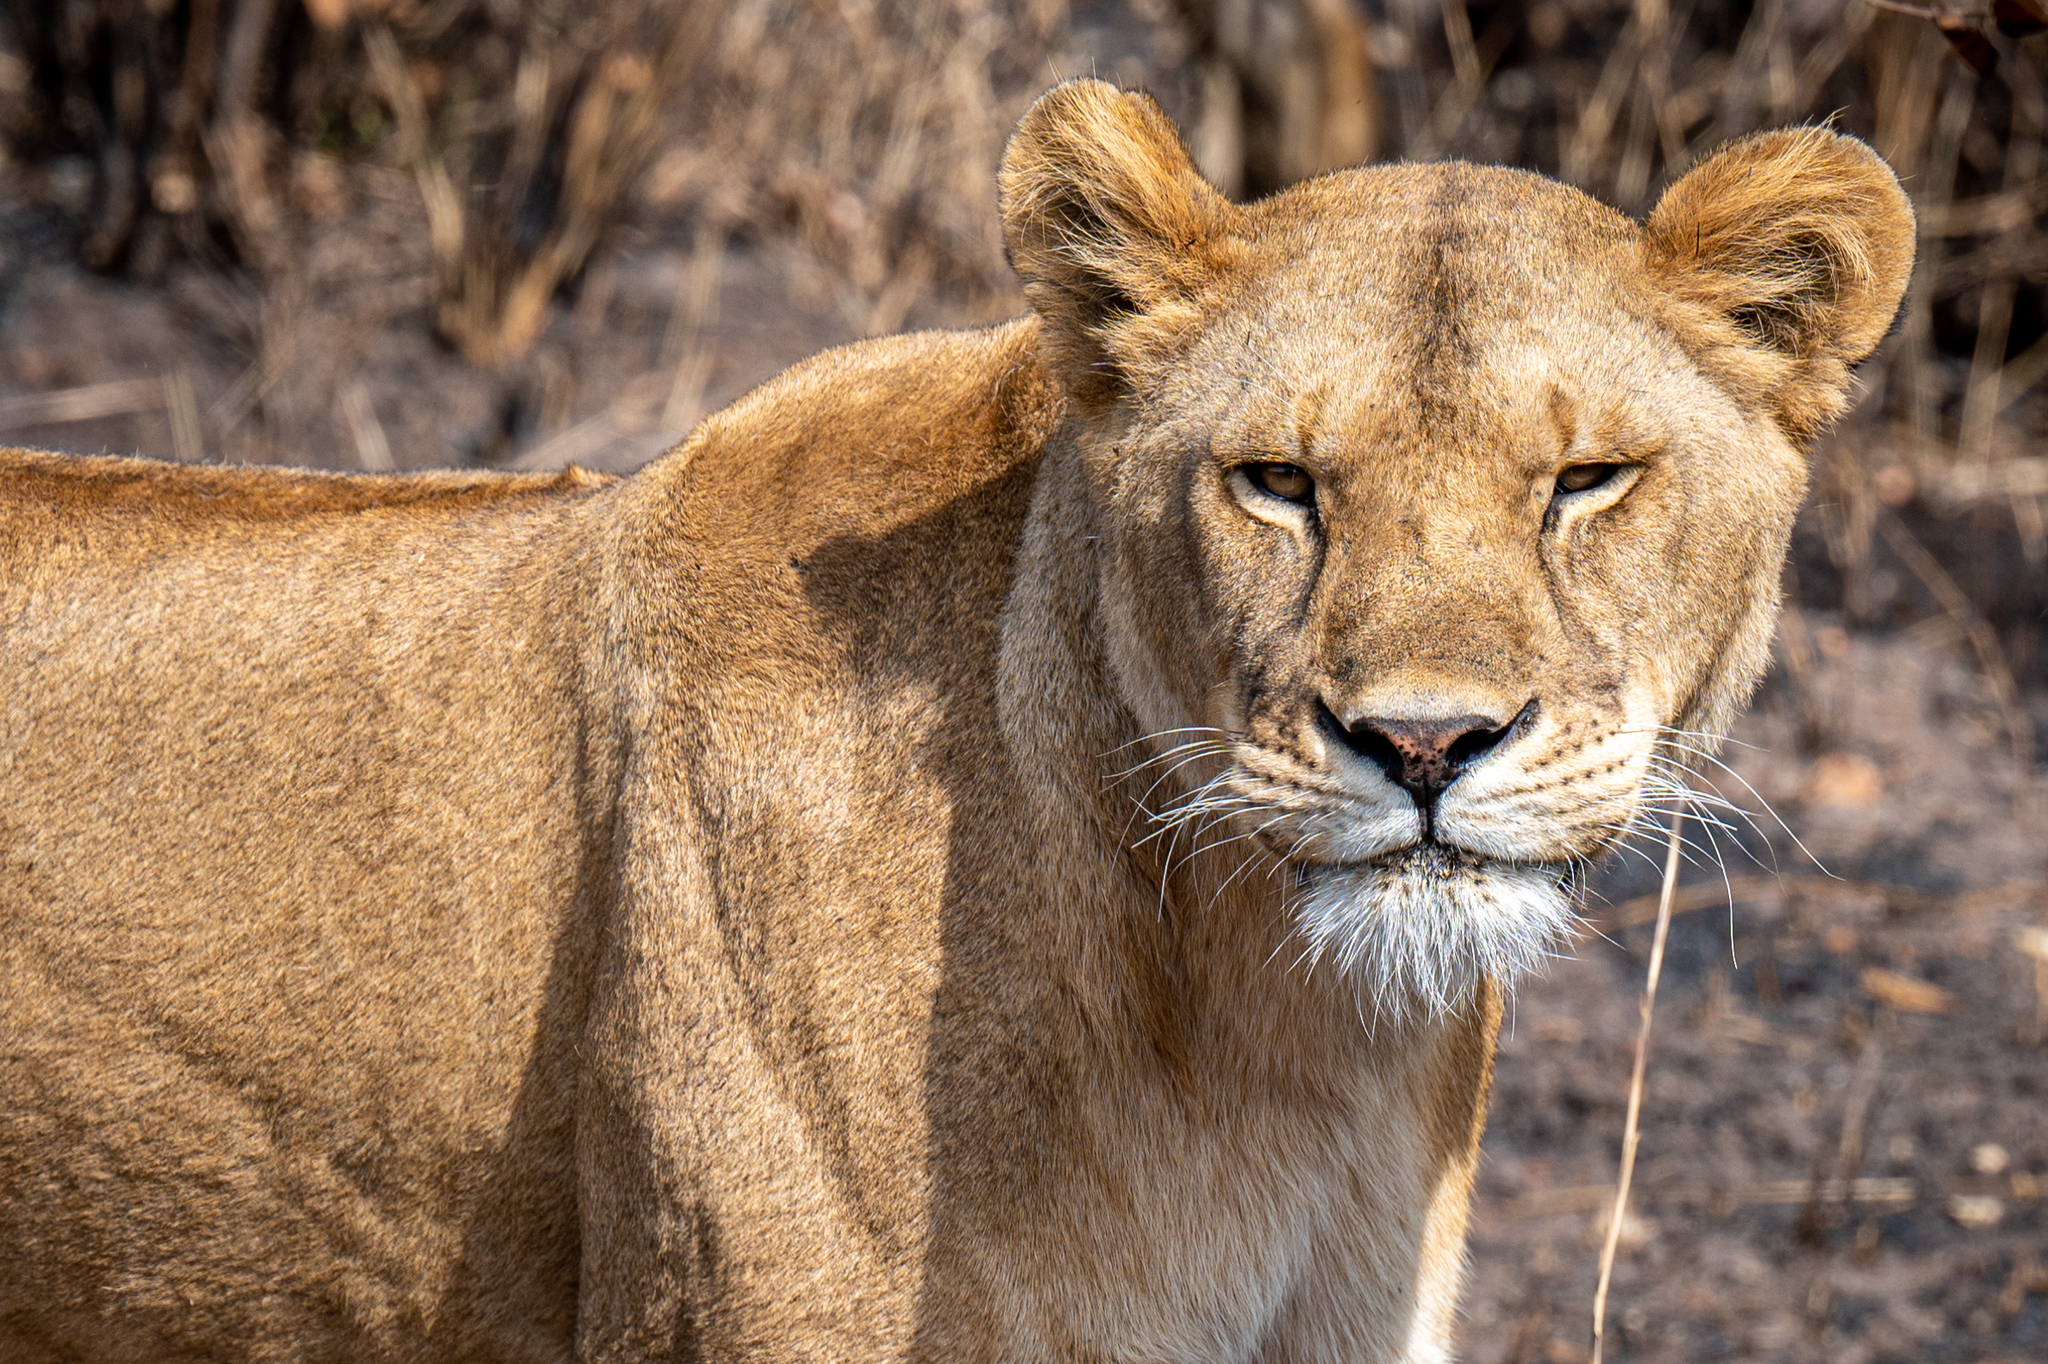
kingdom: Animalia
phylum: Chordata
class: Mammalia
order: Carnivora
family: Felidae
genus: Panthera
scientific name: Panthera leo
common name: Lion
